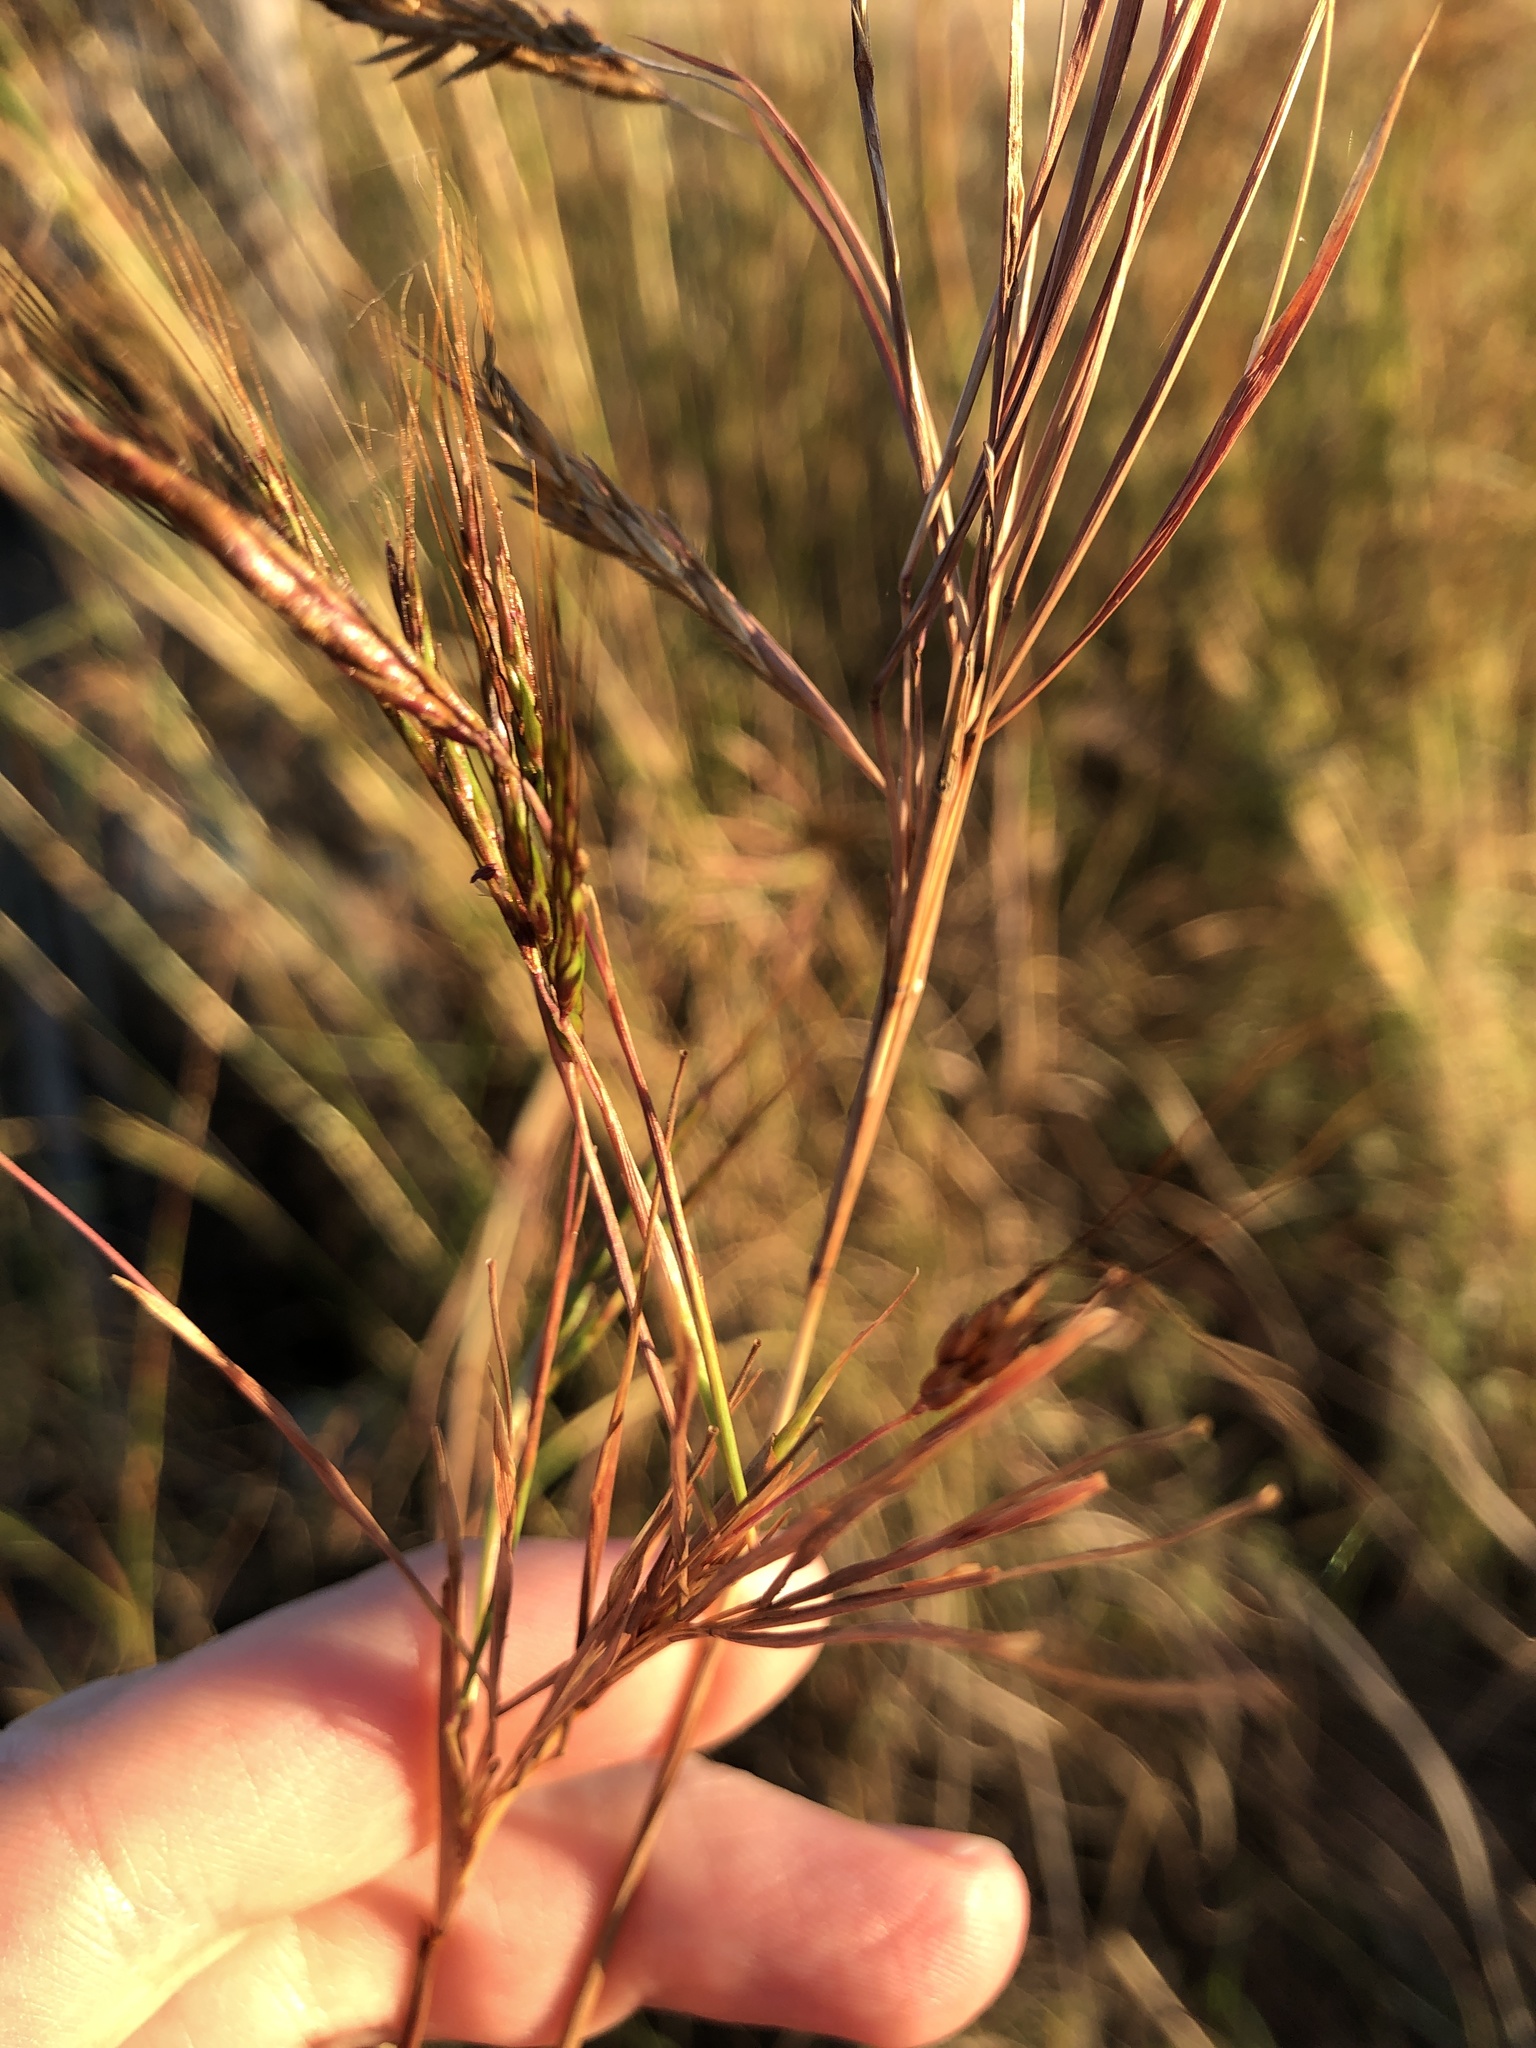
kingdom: Plantae
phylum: Tracheophyta
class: Liliopsida
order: Poales
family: Poaceae
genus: Hyparrhenia
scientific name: Hyparrhenia hirta
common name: Thatching grass
